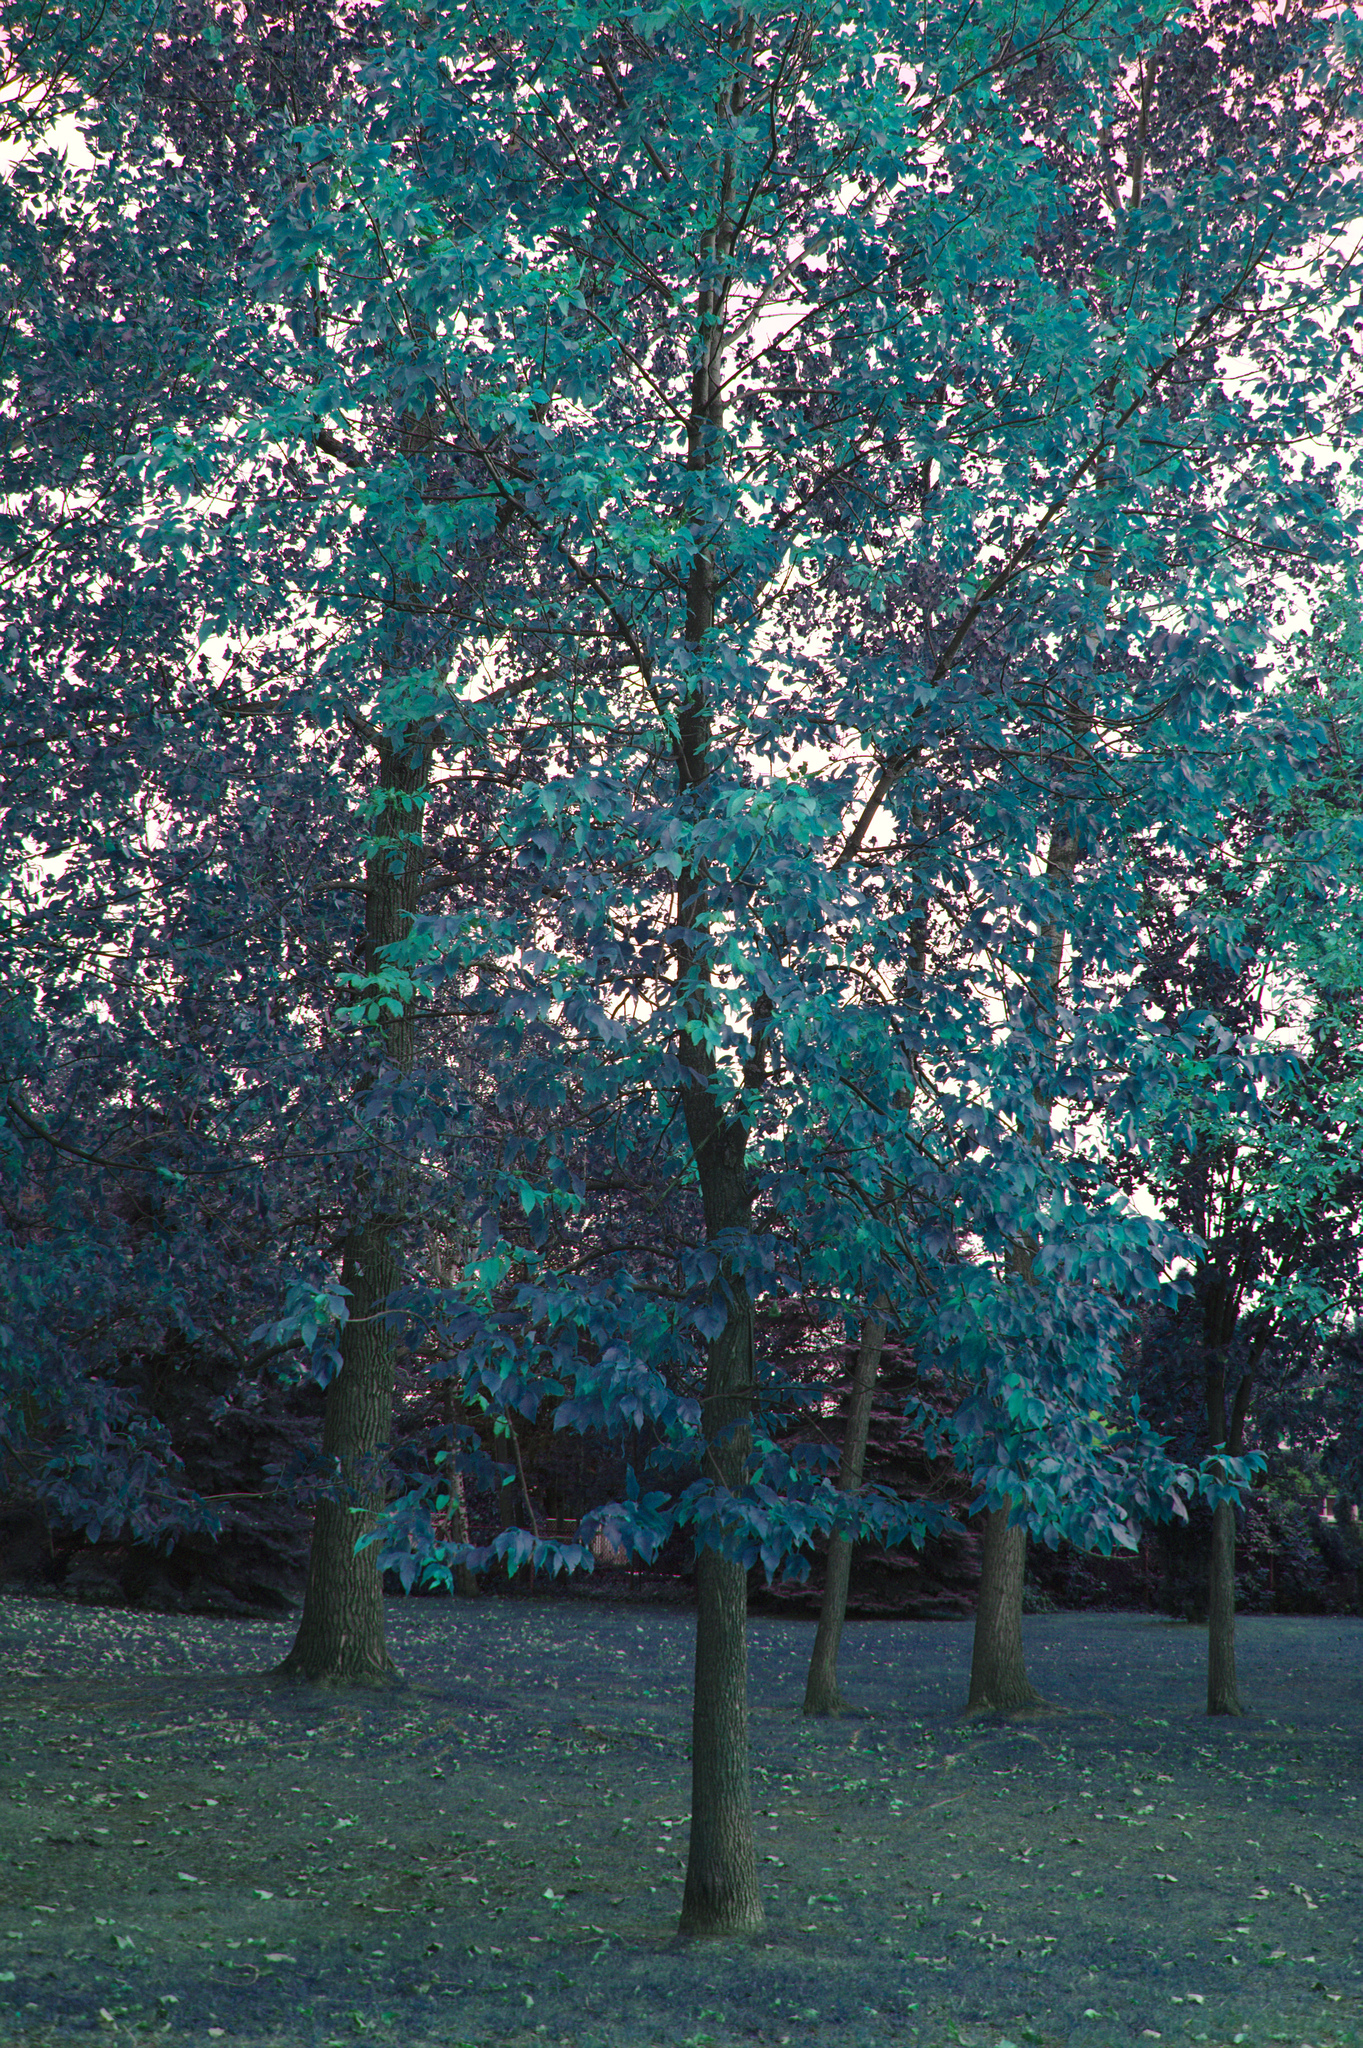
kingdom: Plantae
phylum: Tracheophyta
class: Magnoliopsida
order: Lamiales
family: Oleaceae
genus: Fraxinus
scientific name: Fraxinus pennsylvanica
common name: Green ash
